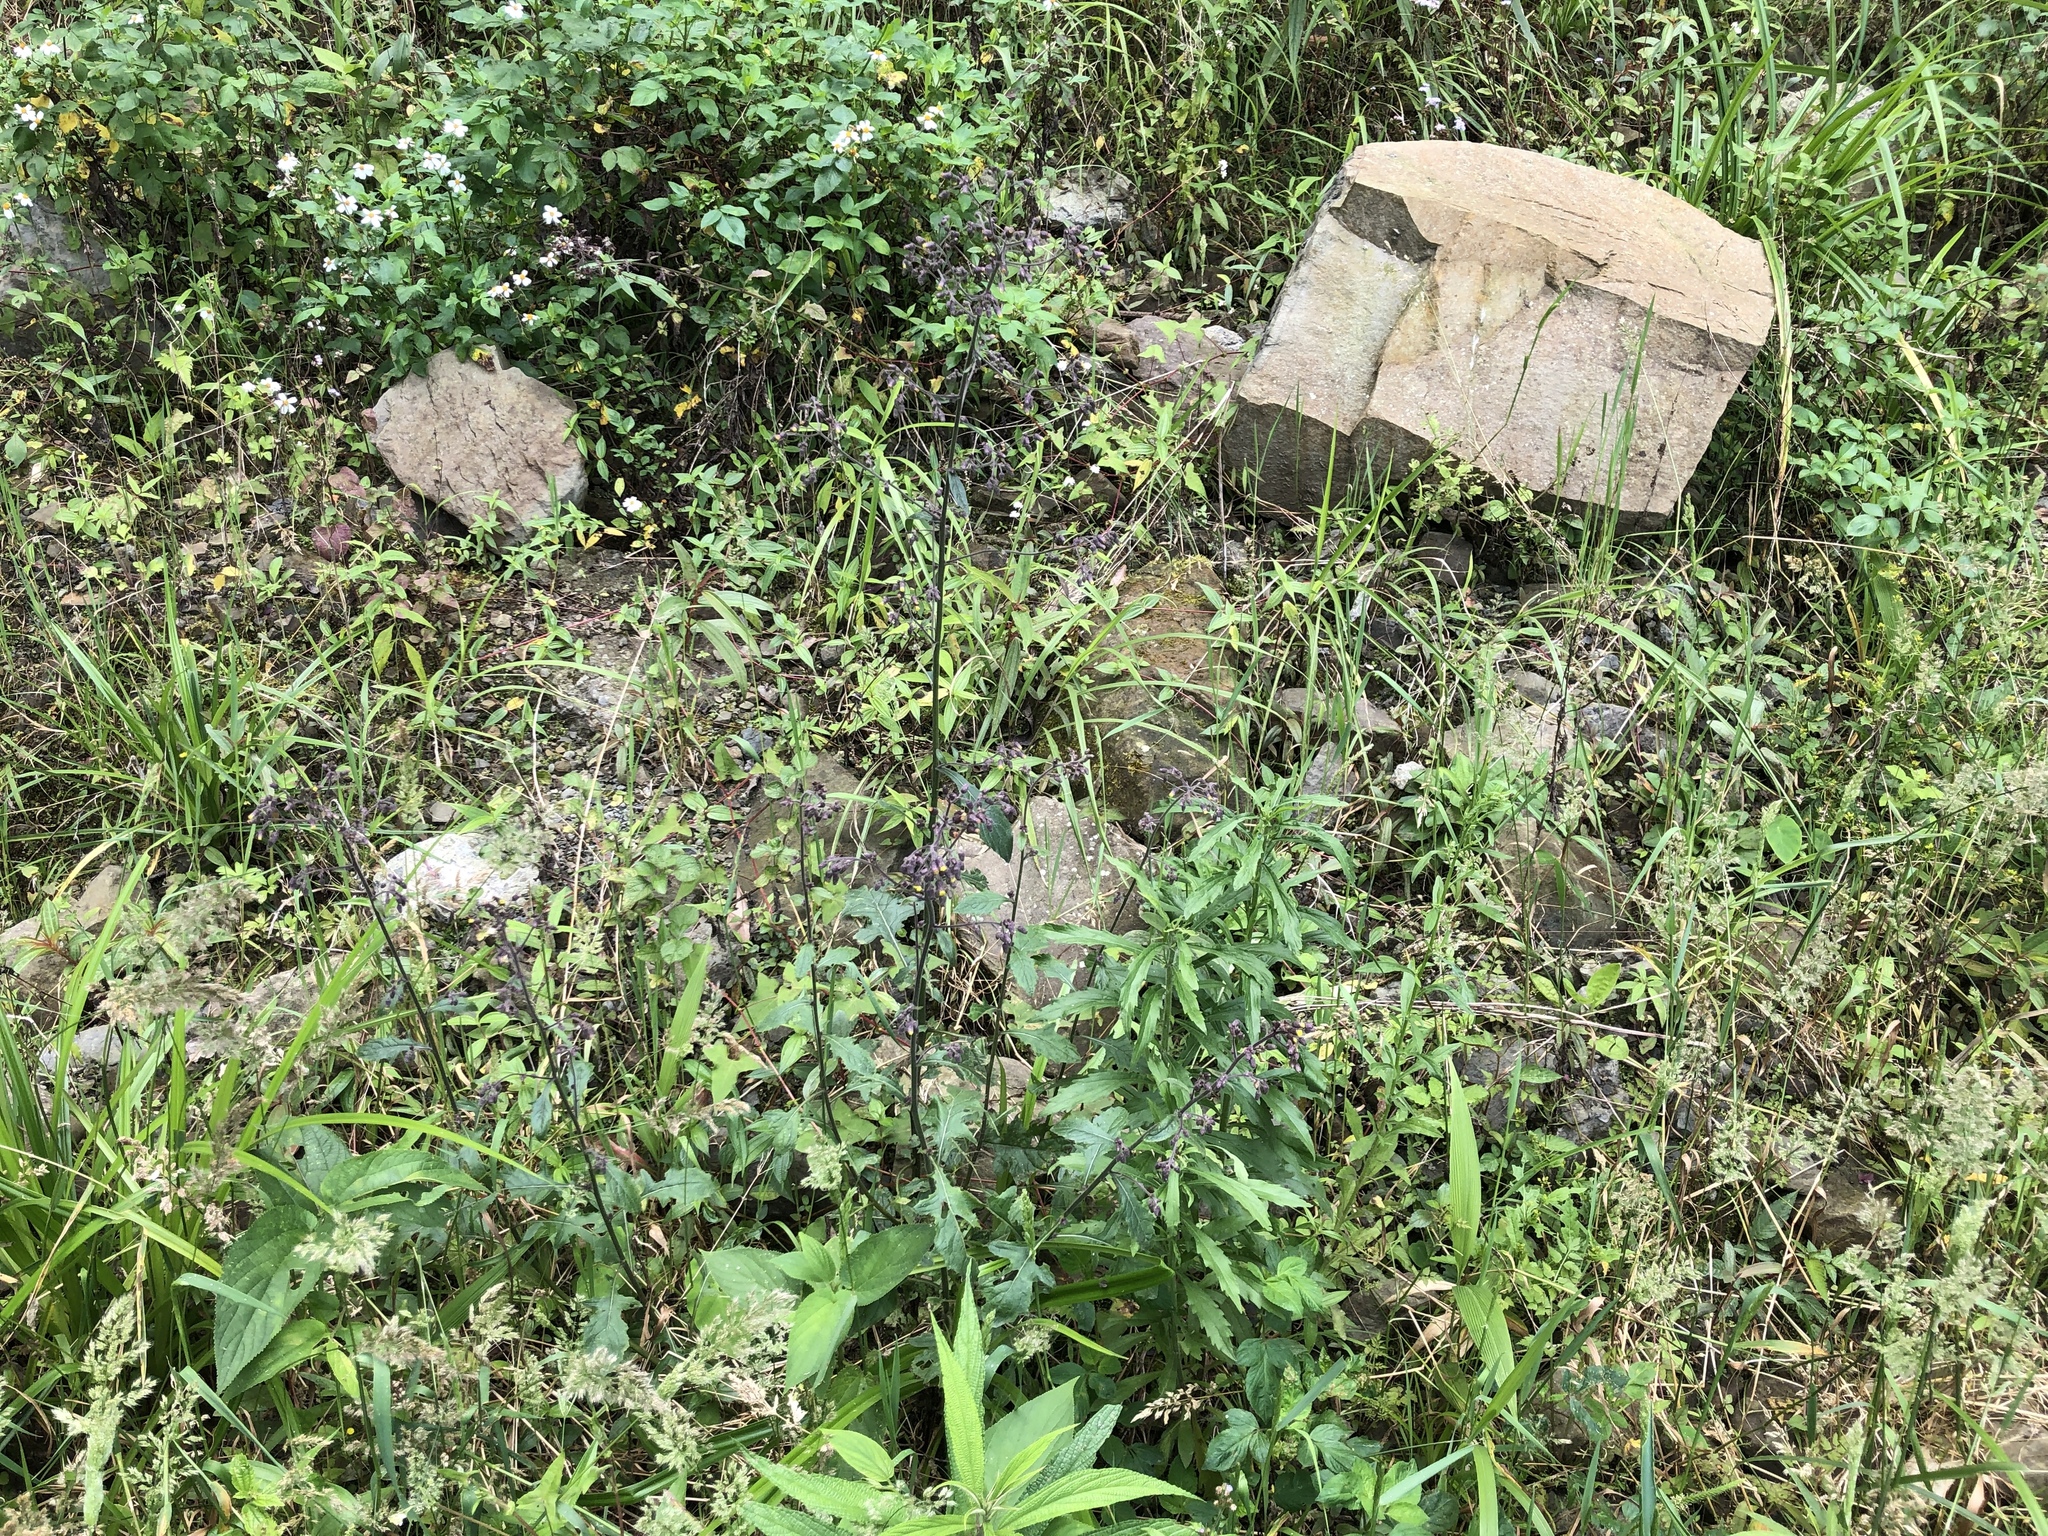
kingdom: Plantae
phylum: Tracheophyta
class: Magnoliopsida
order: Asterales
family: Asteraceae
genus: Blumea
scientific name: Blumea sinuata
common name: Cutleaf false oxtongue
